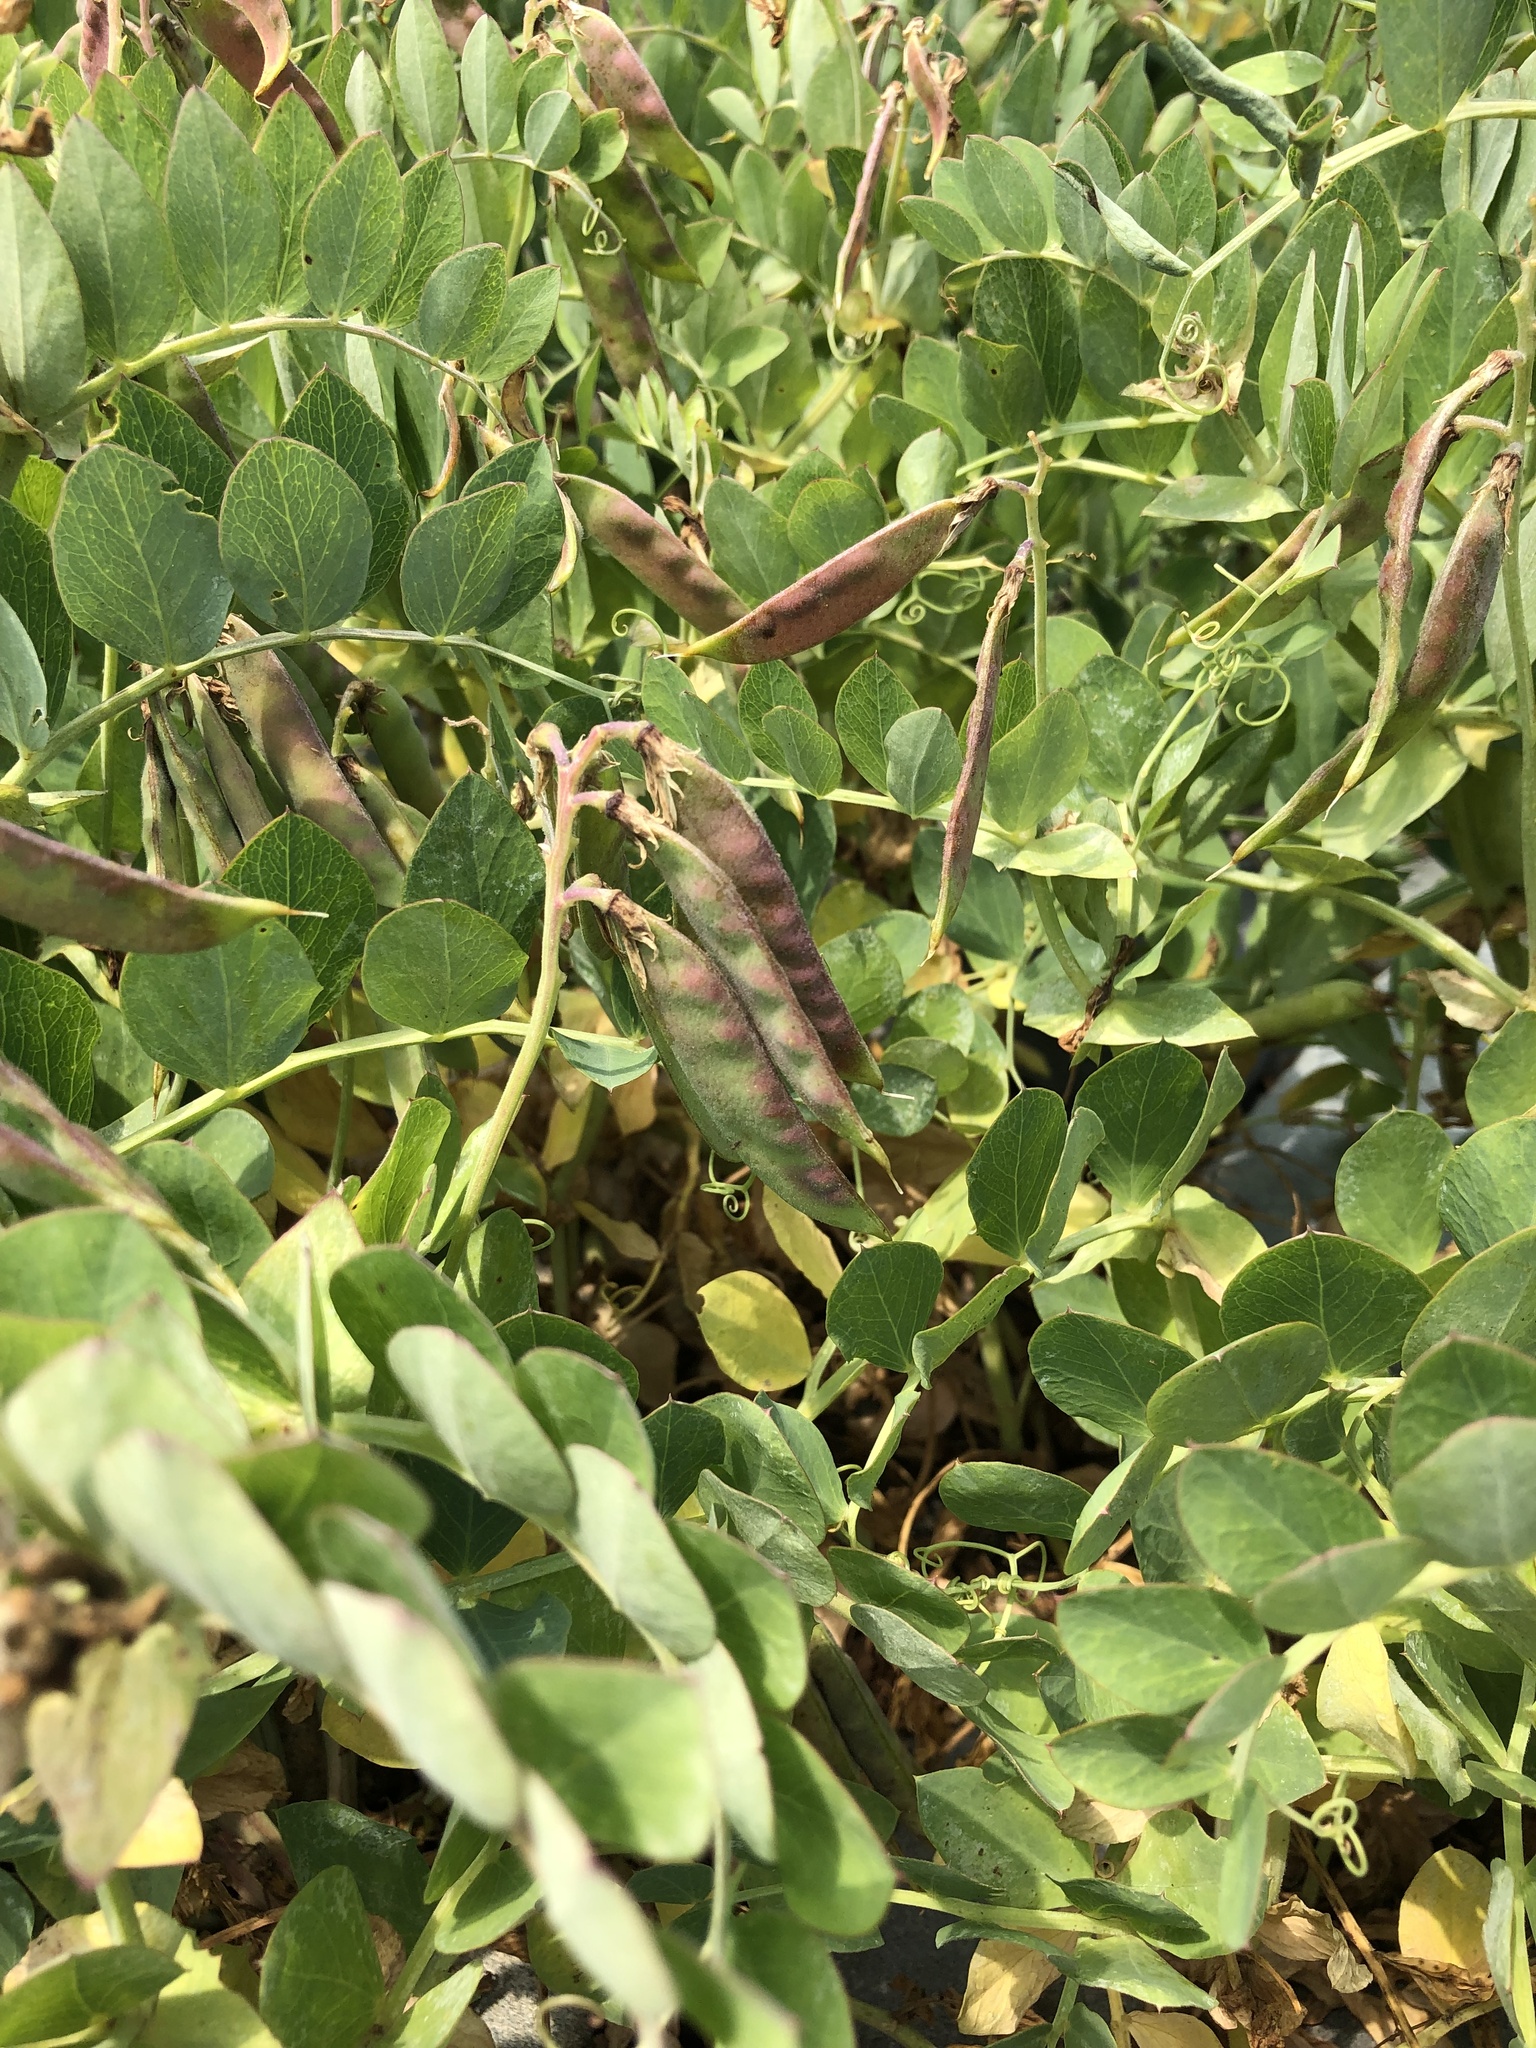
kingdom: Plantae
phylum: Tracheophyta
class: Magnoliopsida
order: Fabales
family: Fabaceae
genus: Lathyrus
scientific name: Lathyrus japonicus
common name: Sea pea
